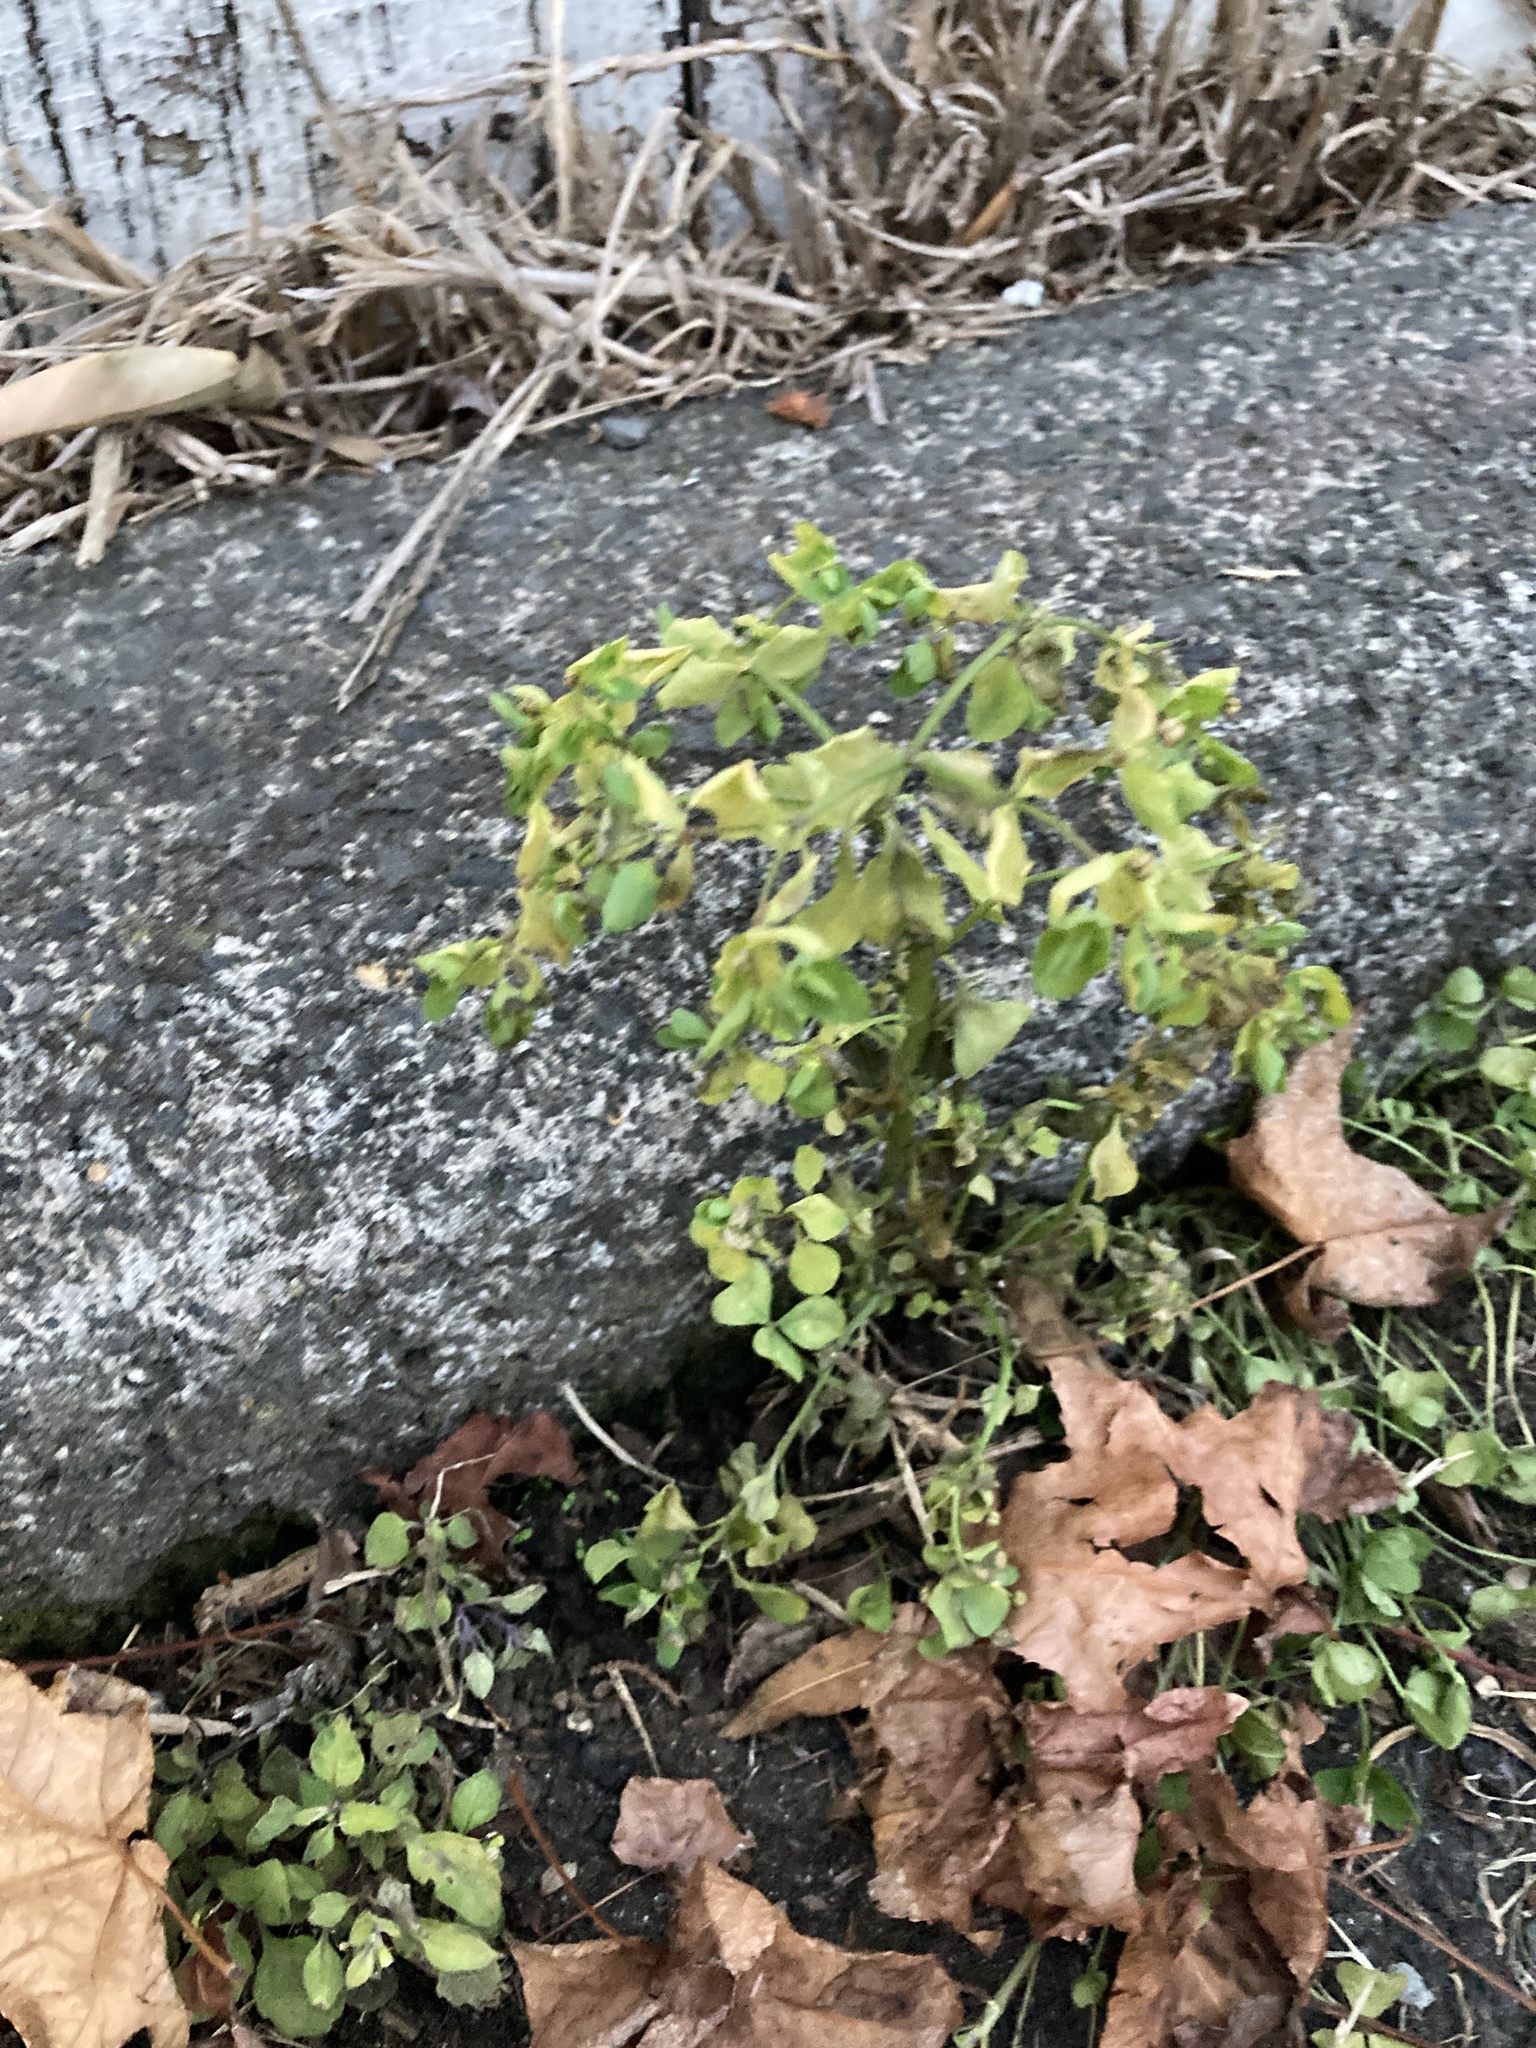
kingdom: Plantae
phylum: Tracheophyta
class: Magnoliopsida
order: Malpighiales
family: Euphorbiaceae
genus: Euphorbia
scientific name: Euphorbia peplus
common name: Petty spurge
